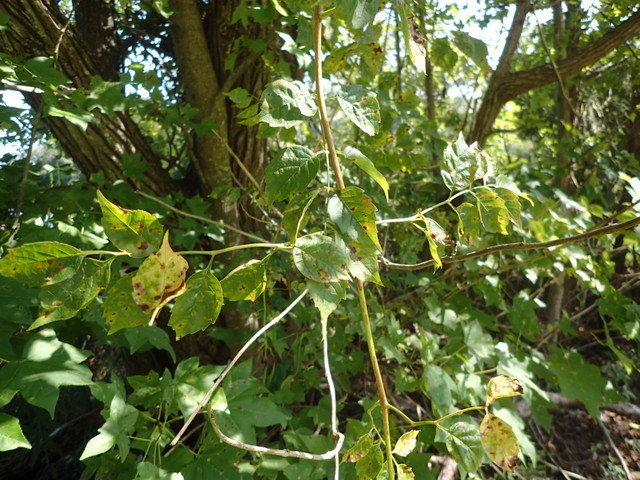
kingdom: Plantae
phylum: Tracheophyta
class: Magnoliopsida
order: Lamiales
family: Bignoniaceae
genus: Campsis
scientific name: Campsis radicans
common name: Trumpet-creeper
